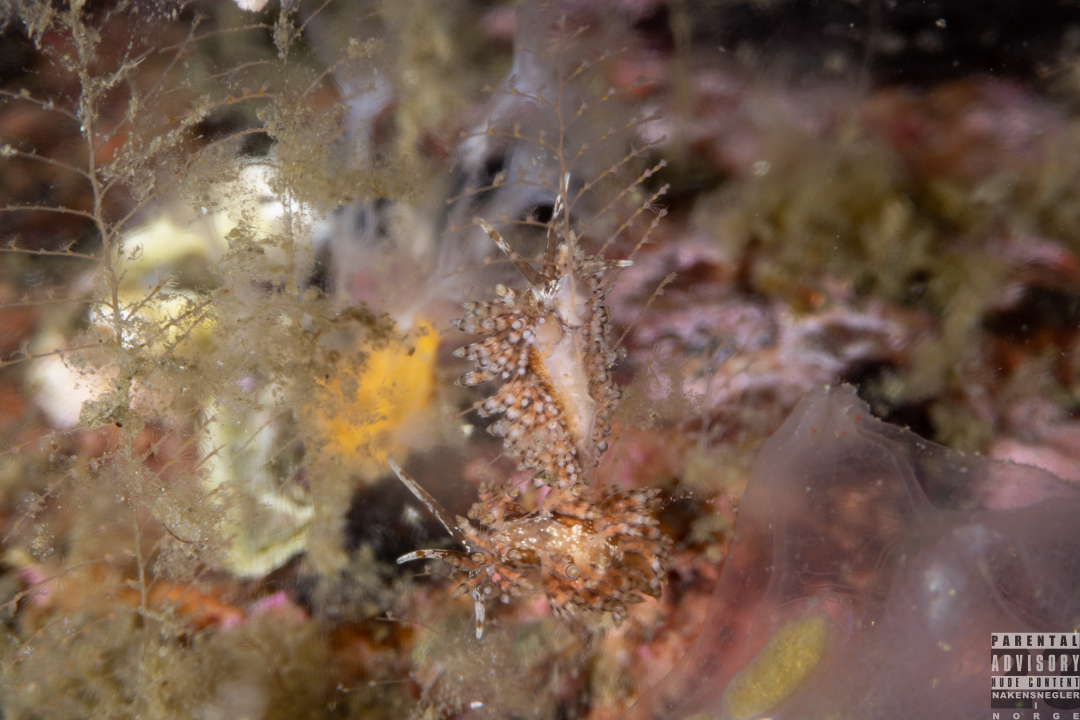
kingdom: Animalia
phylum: Mollusca
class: Gastropoda
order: Nudibranchia
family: Eubranchidae
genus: Eubranchus
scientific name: Eubranchus vittatus
